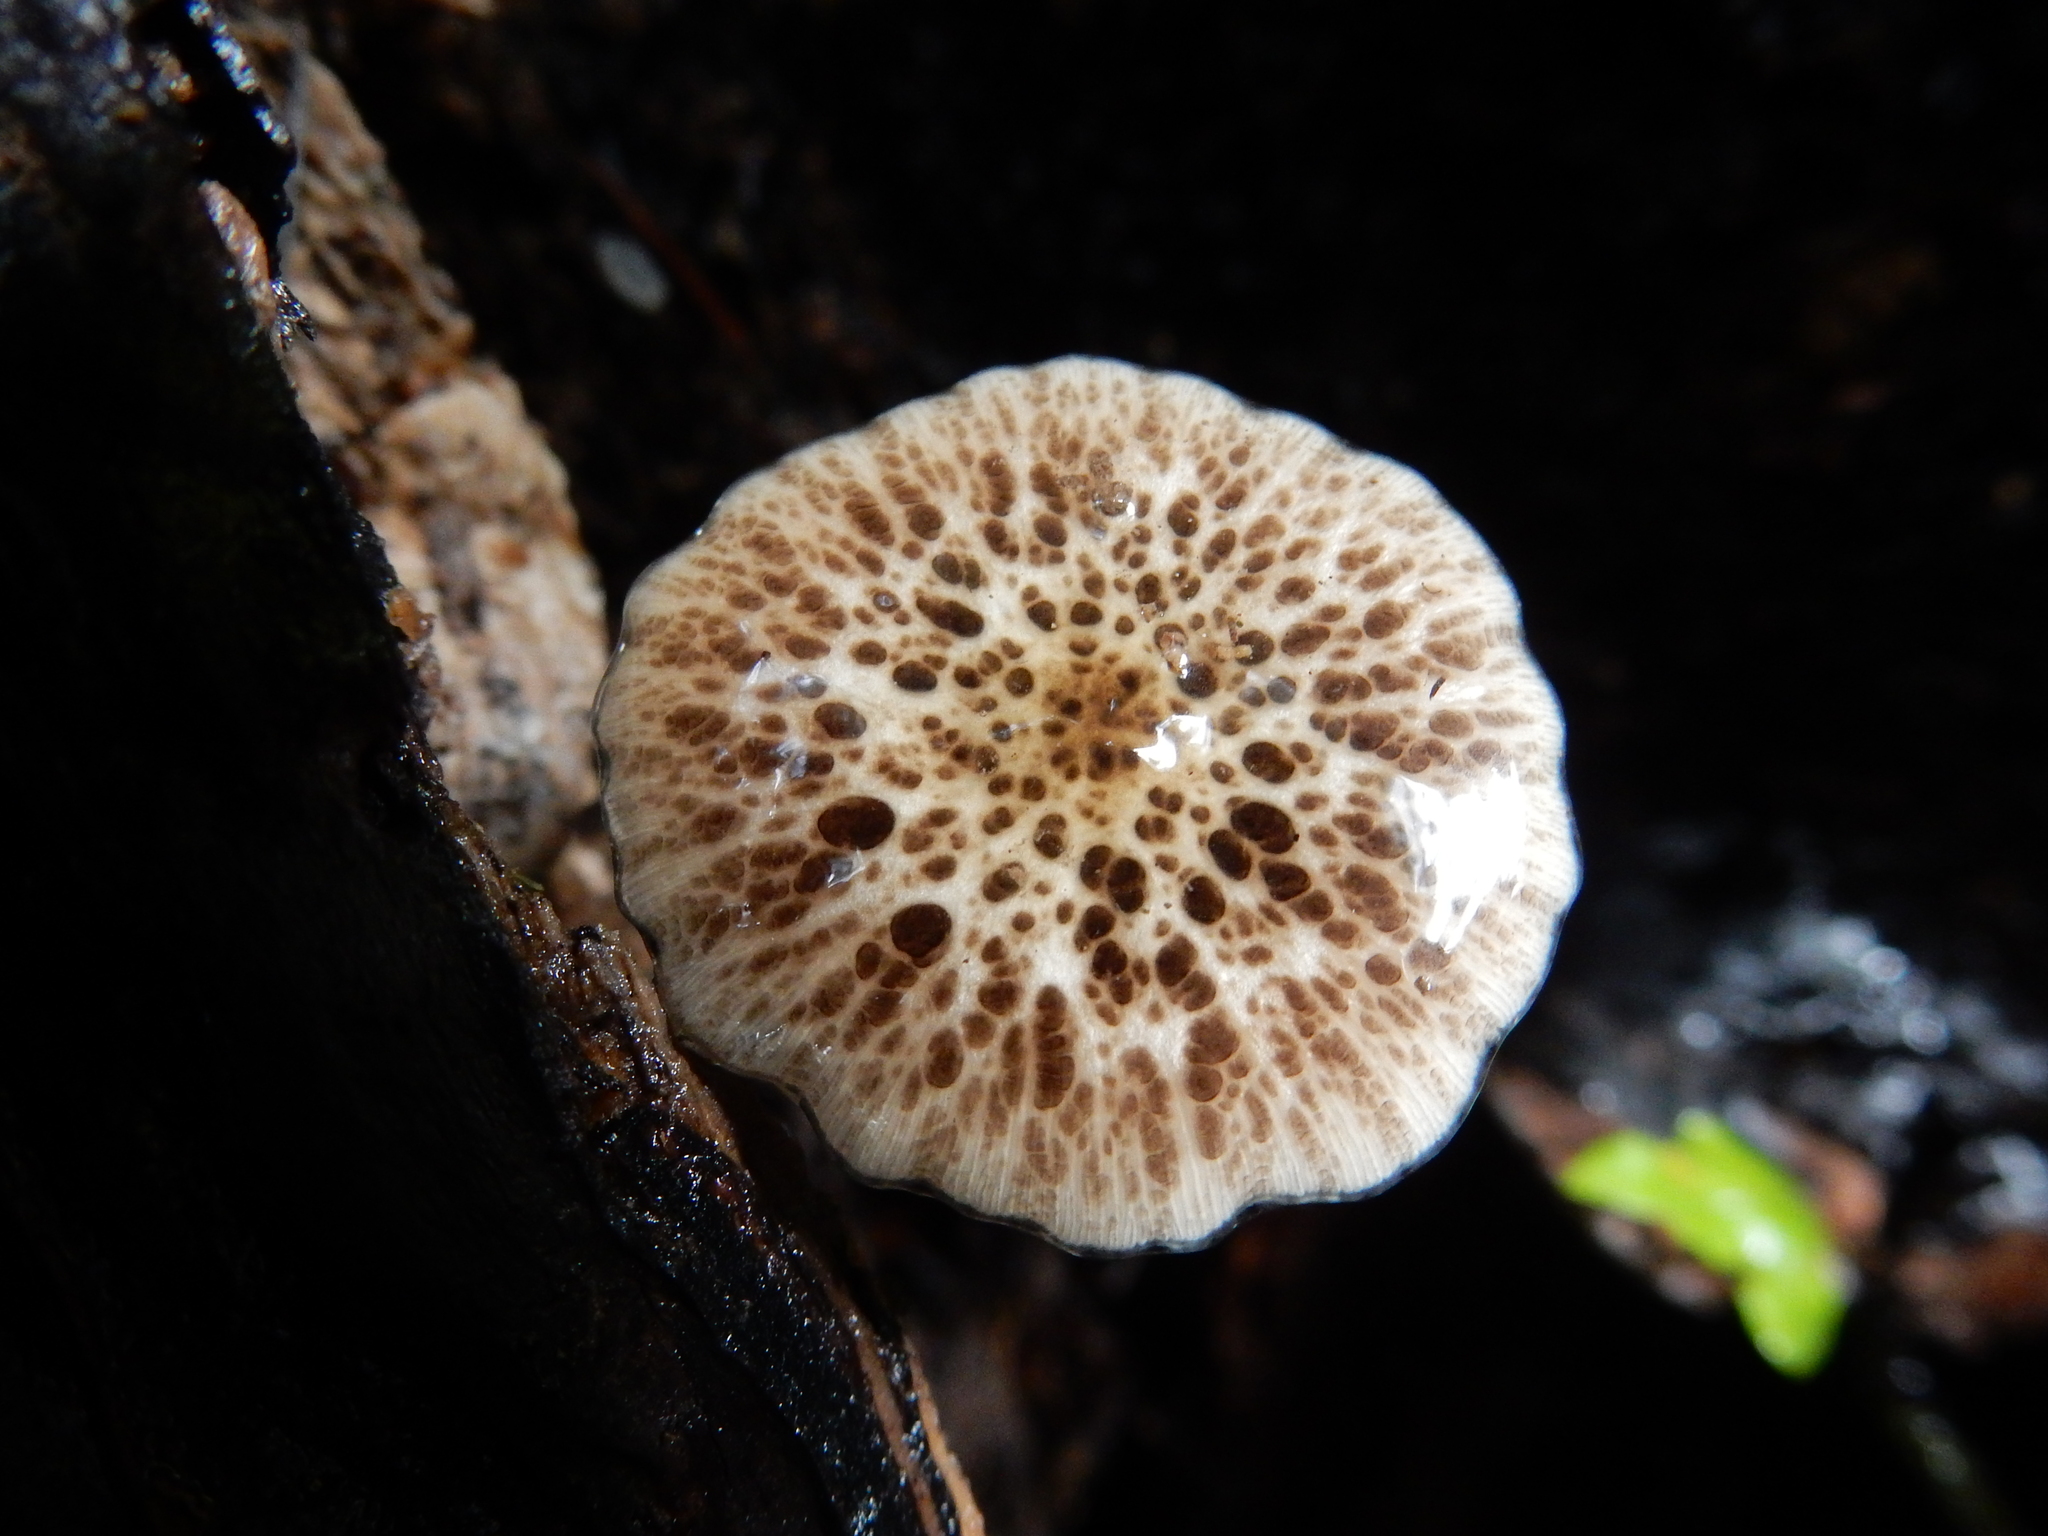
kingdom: Fungi
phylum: Basidiomycota
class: Agaricomycetes
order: Agaricales
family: Bolbitiaceae
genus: Bolbitius
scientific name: Bolbitius muscicola
